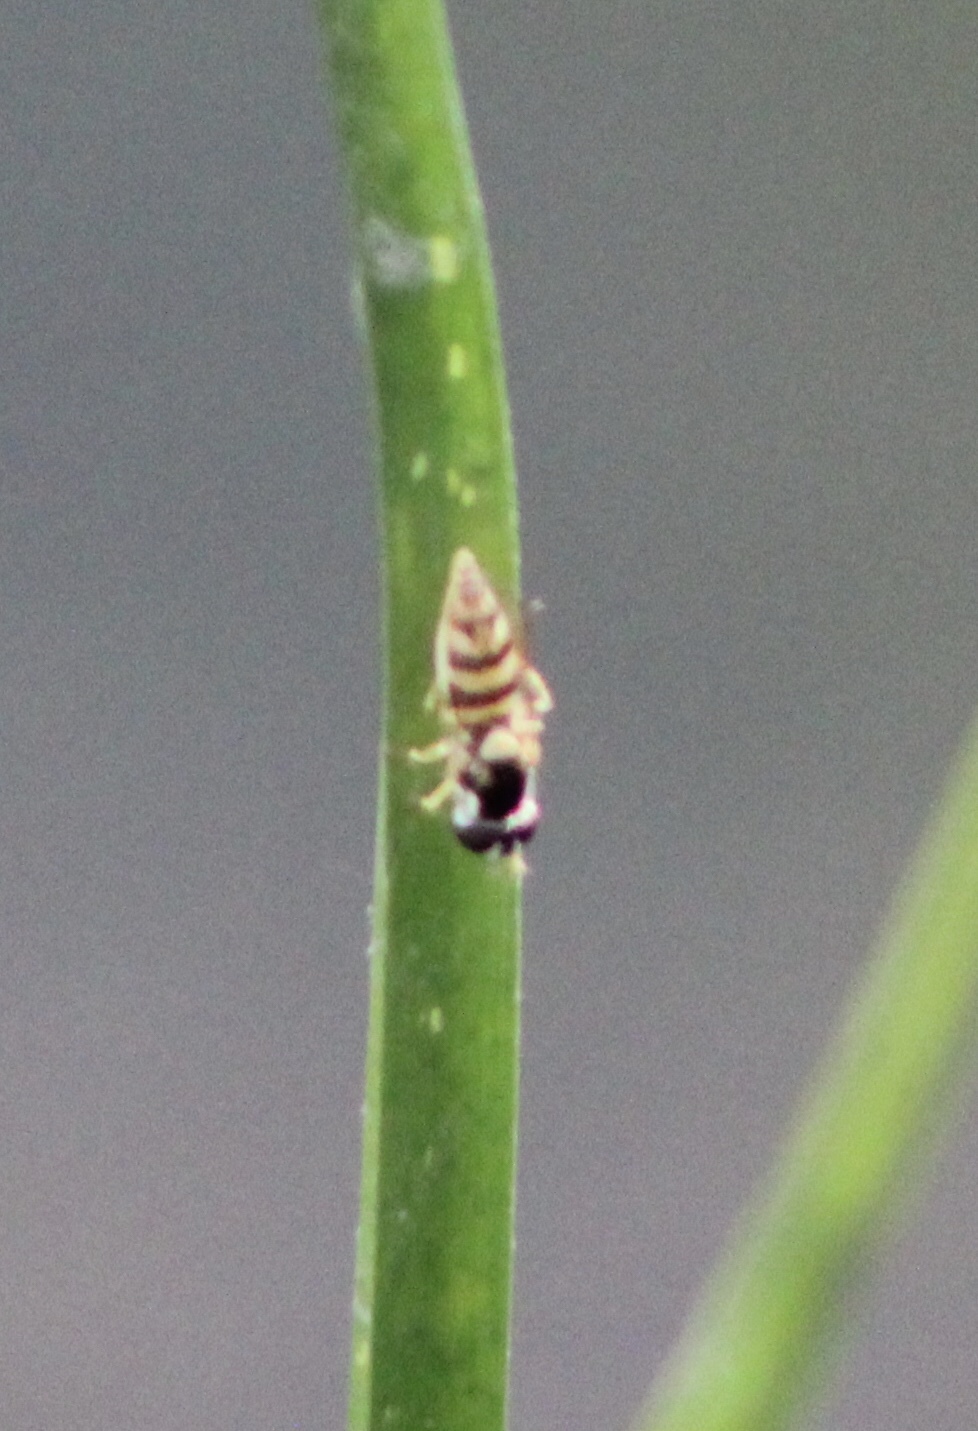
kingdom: Animalia
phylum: Arthropoda
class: Insecta
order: Diptera
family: Syrphidae
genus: Allograpta
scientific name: Allograpta exotica
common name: Syrphid fly
